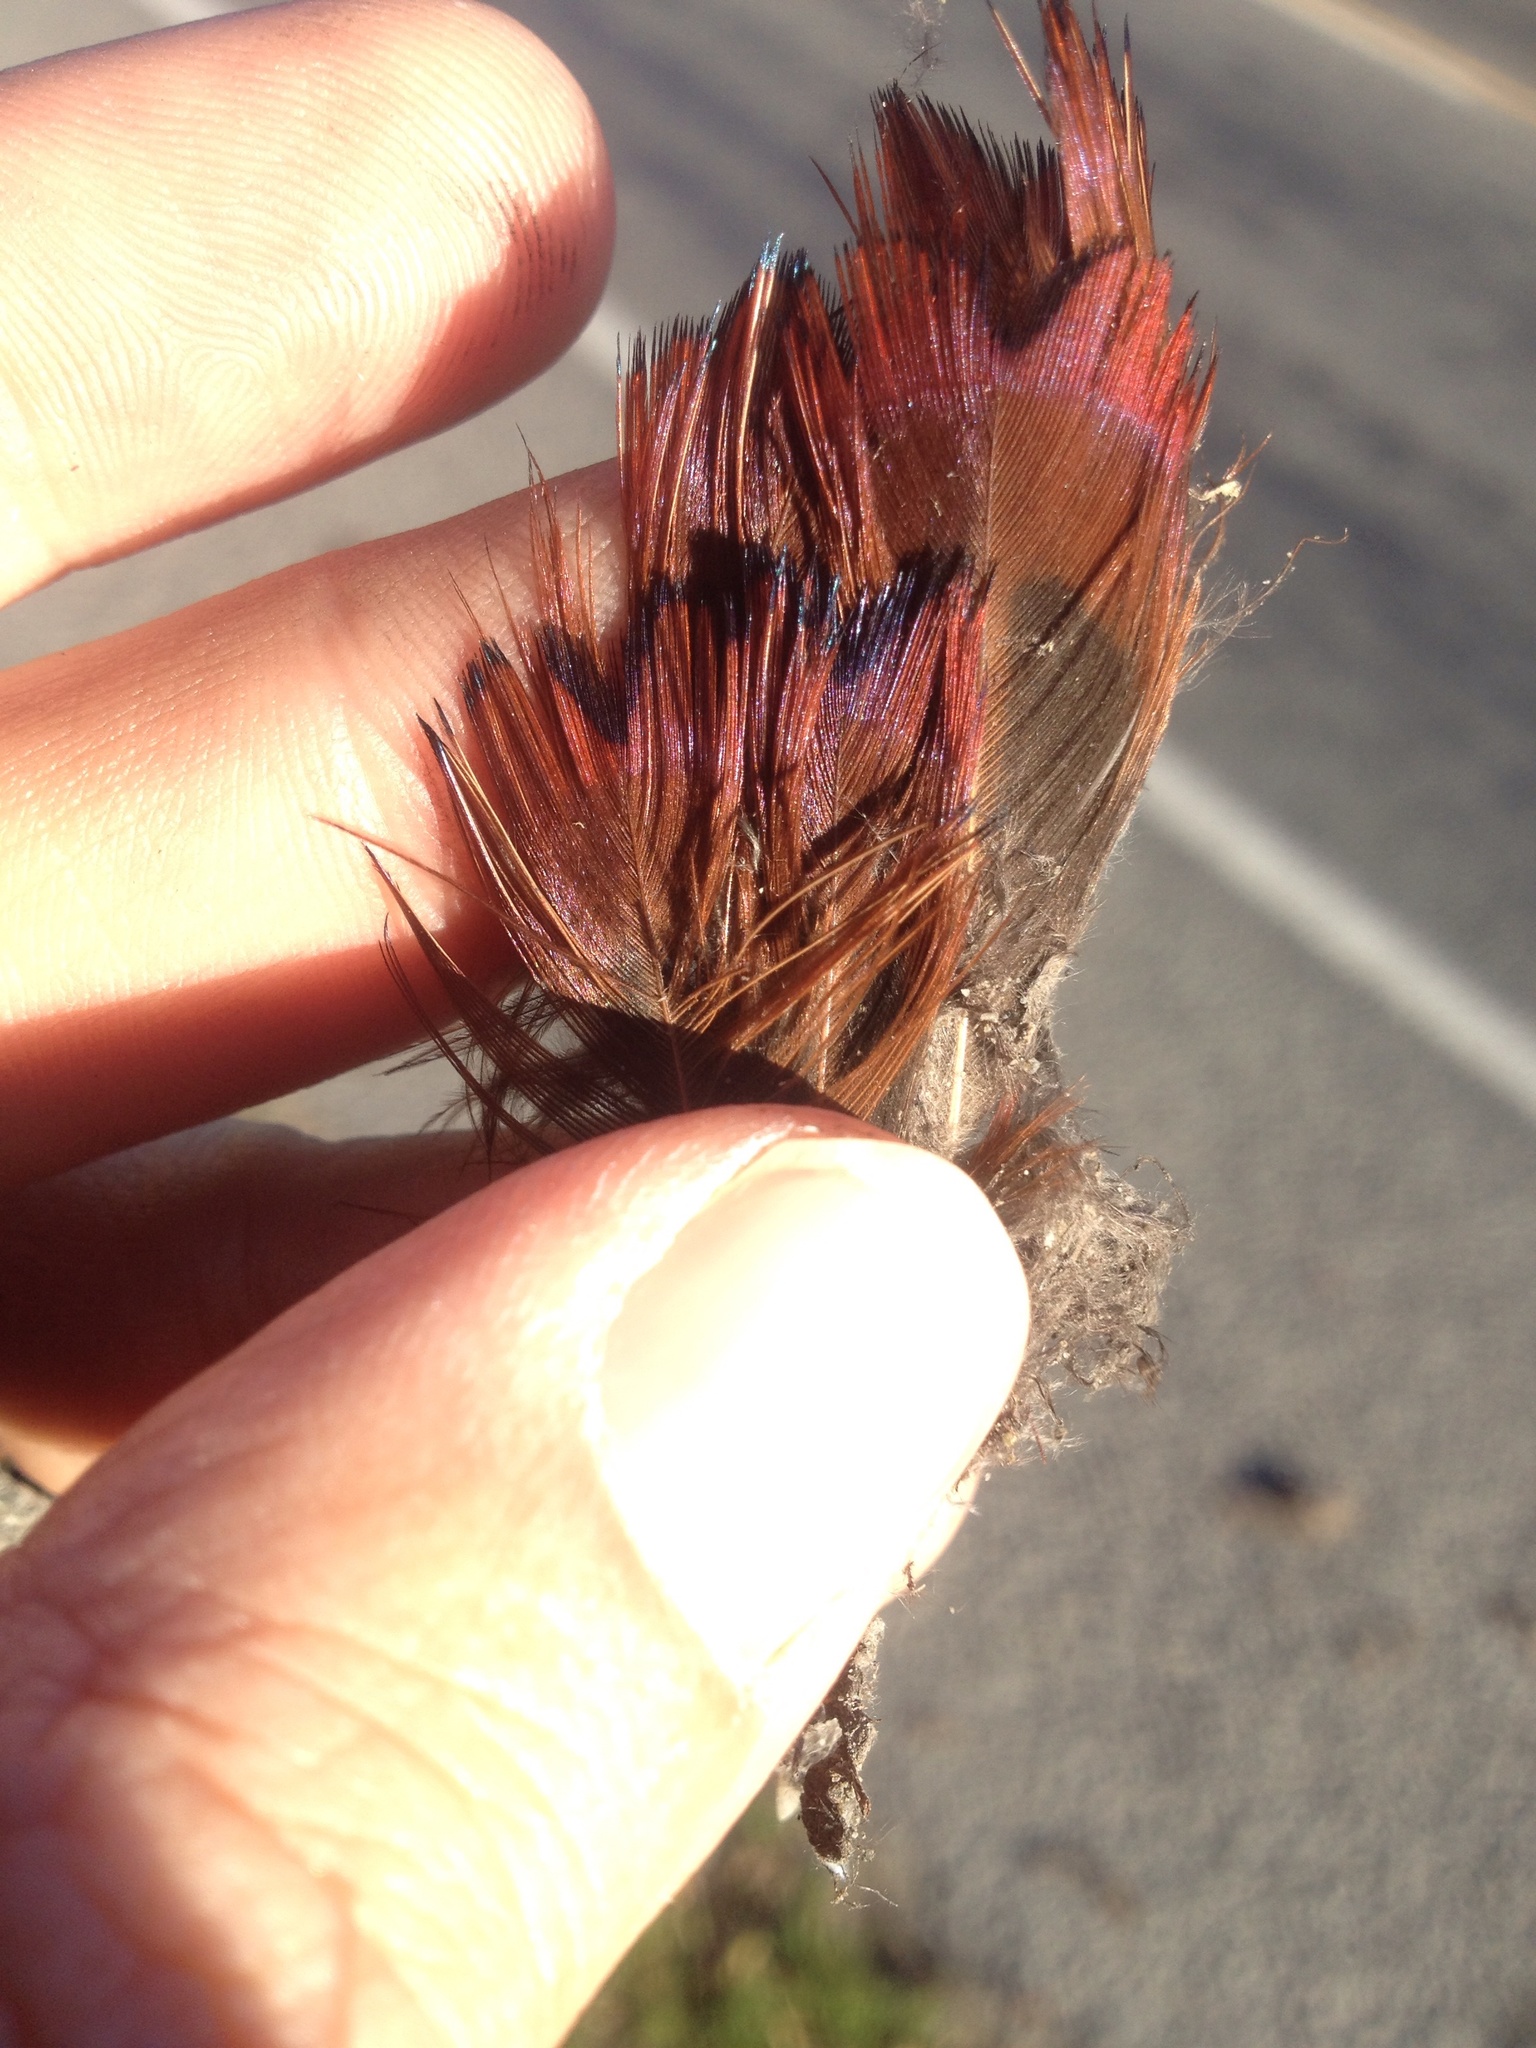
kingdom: Animalia
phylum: Chordata
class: Aves
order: Galliformes
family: Phasianidae
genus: Phasianus
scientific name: Phasianus colchicus
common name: Common pheasant
